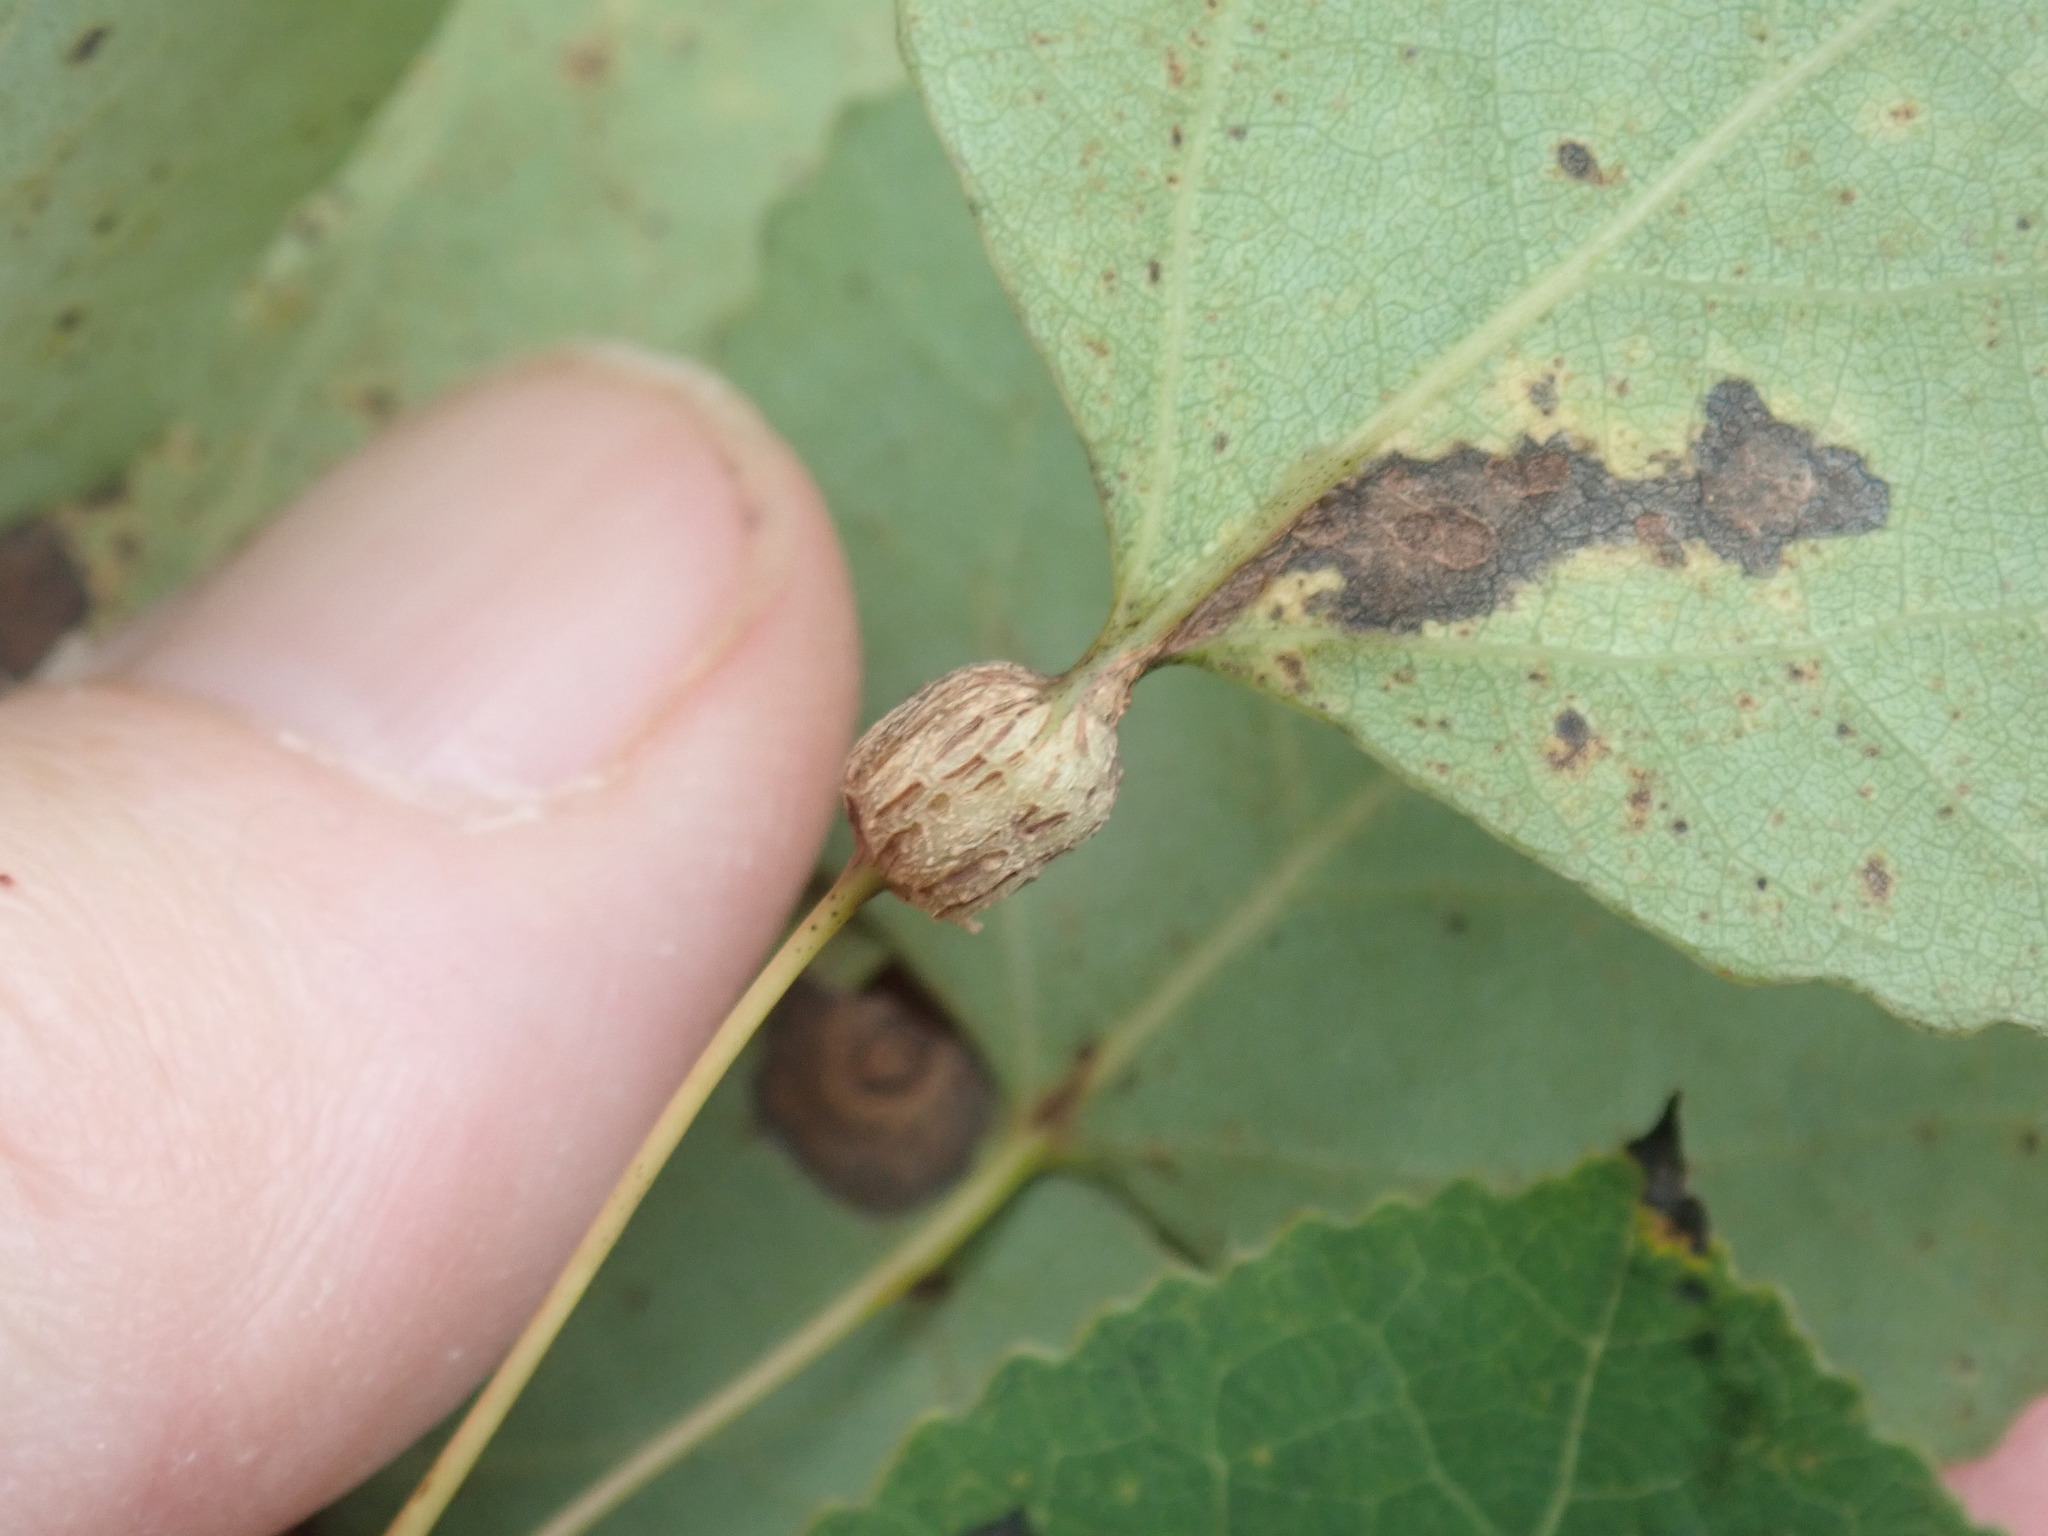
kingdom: Animalia
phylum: Arthropoda
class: Insecta
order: Lepidoptera
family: Nepticulidae
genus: Ectoedemia
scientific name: Ectoedemia populella
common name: Aspen petiole gall moth
